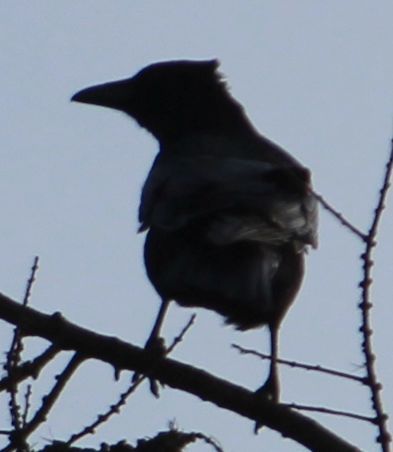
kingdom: Animalia
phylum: Chordata
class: Aves
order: Passeriformes
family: Corvidae
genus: Corvus
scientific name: Corvus corone
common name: Carrion crow
